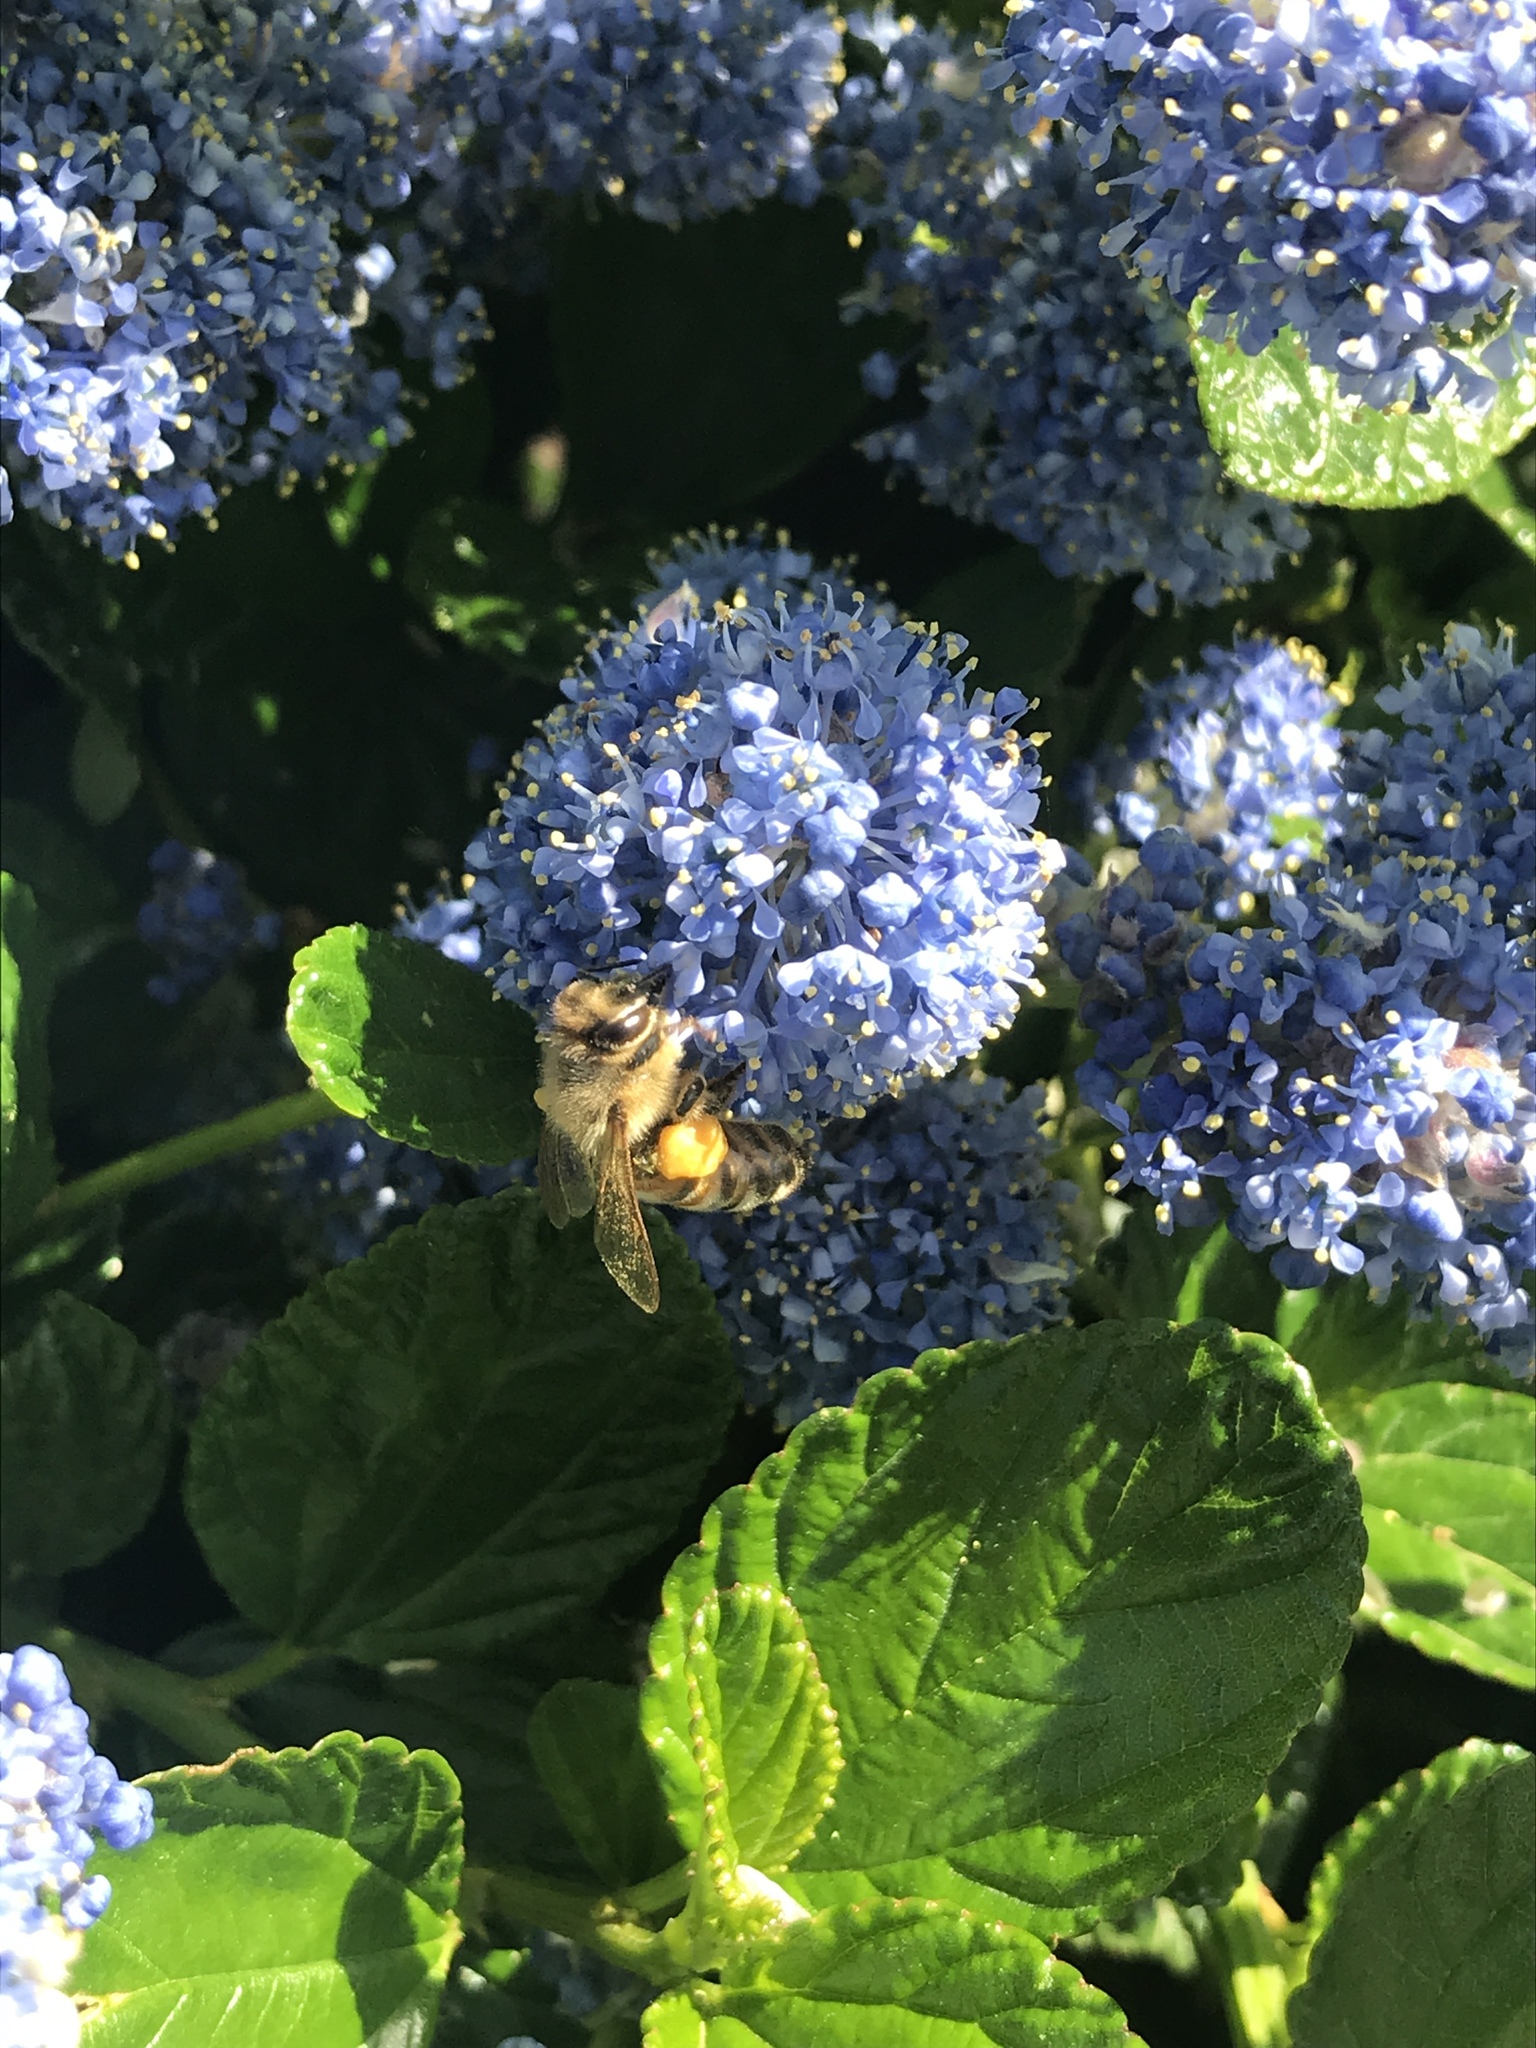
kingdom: Animalia
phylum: Arthropoda
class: Insecta
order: Hymenoptera
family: Apidae
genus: Apis
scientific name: Apis mellifera
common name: Honey bee
